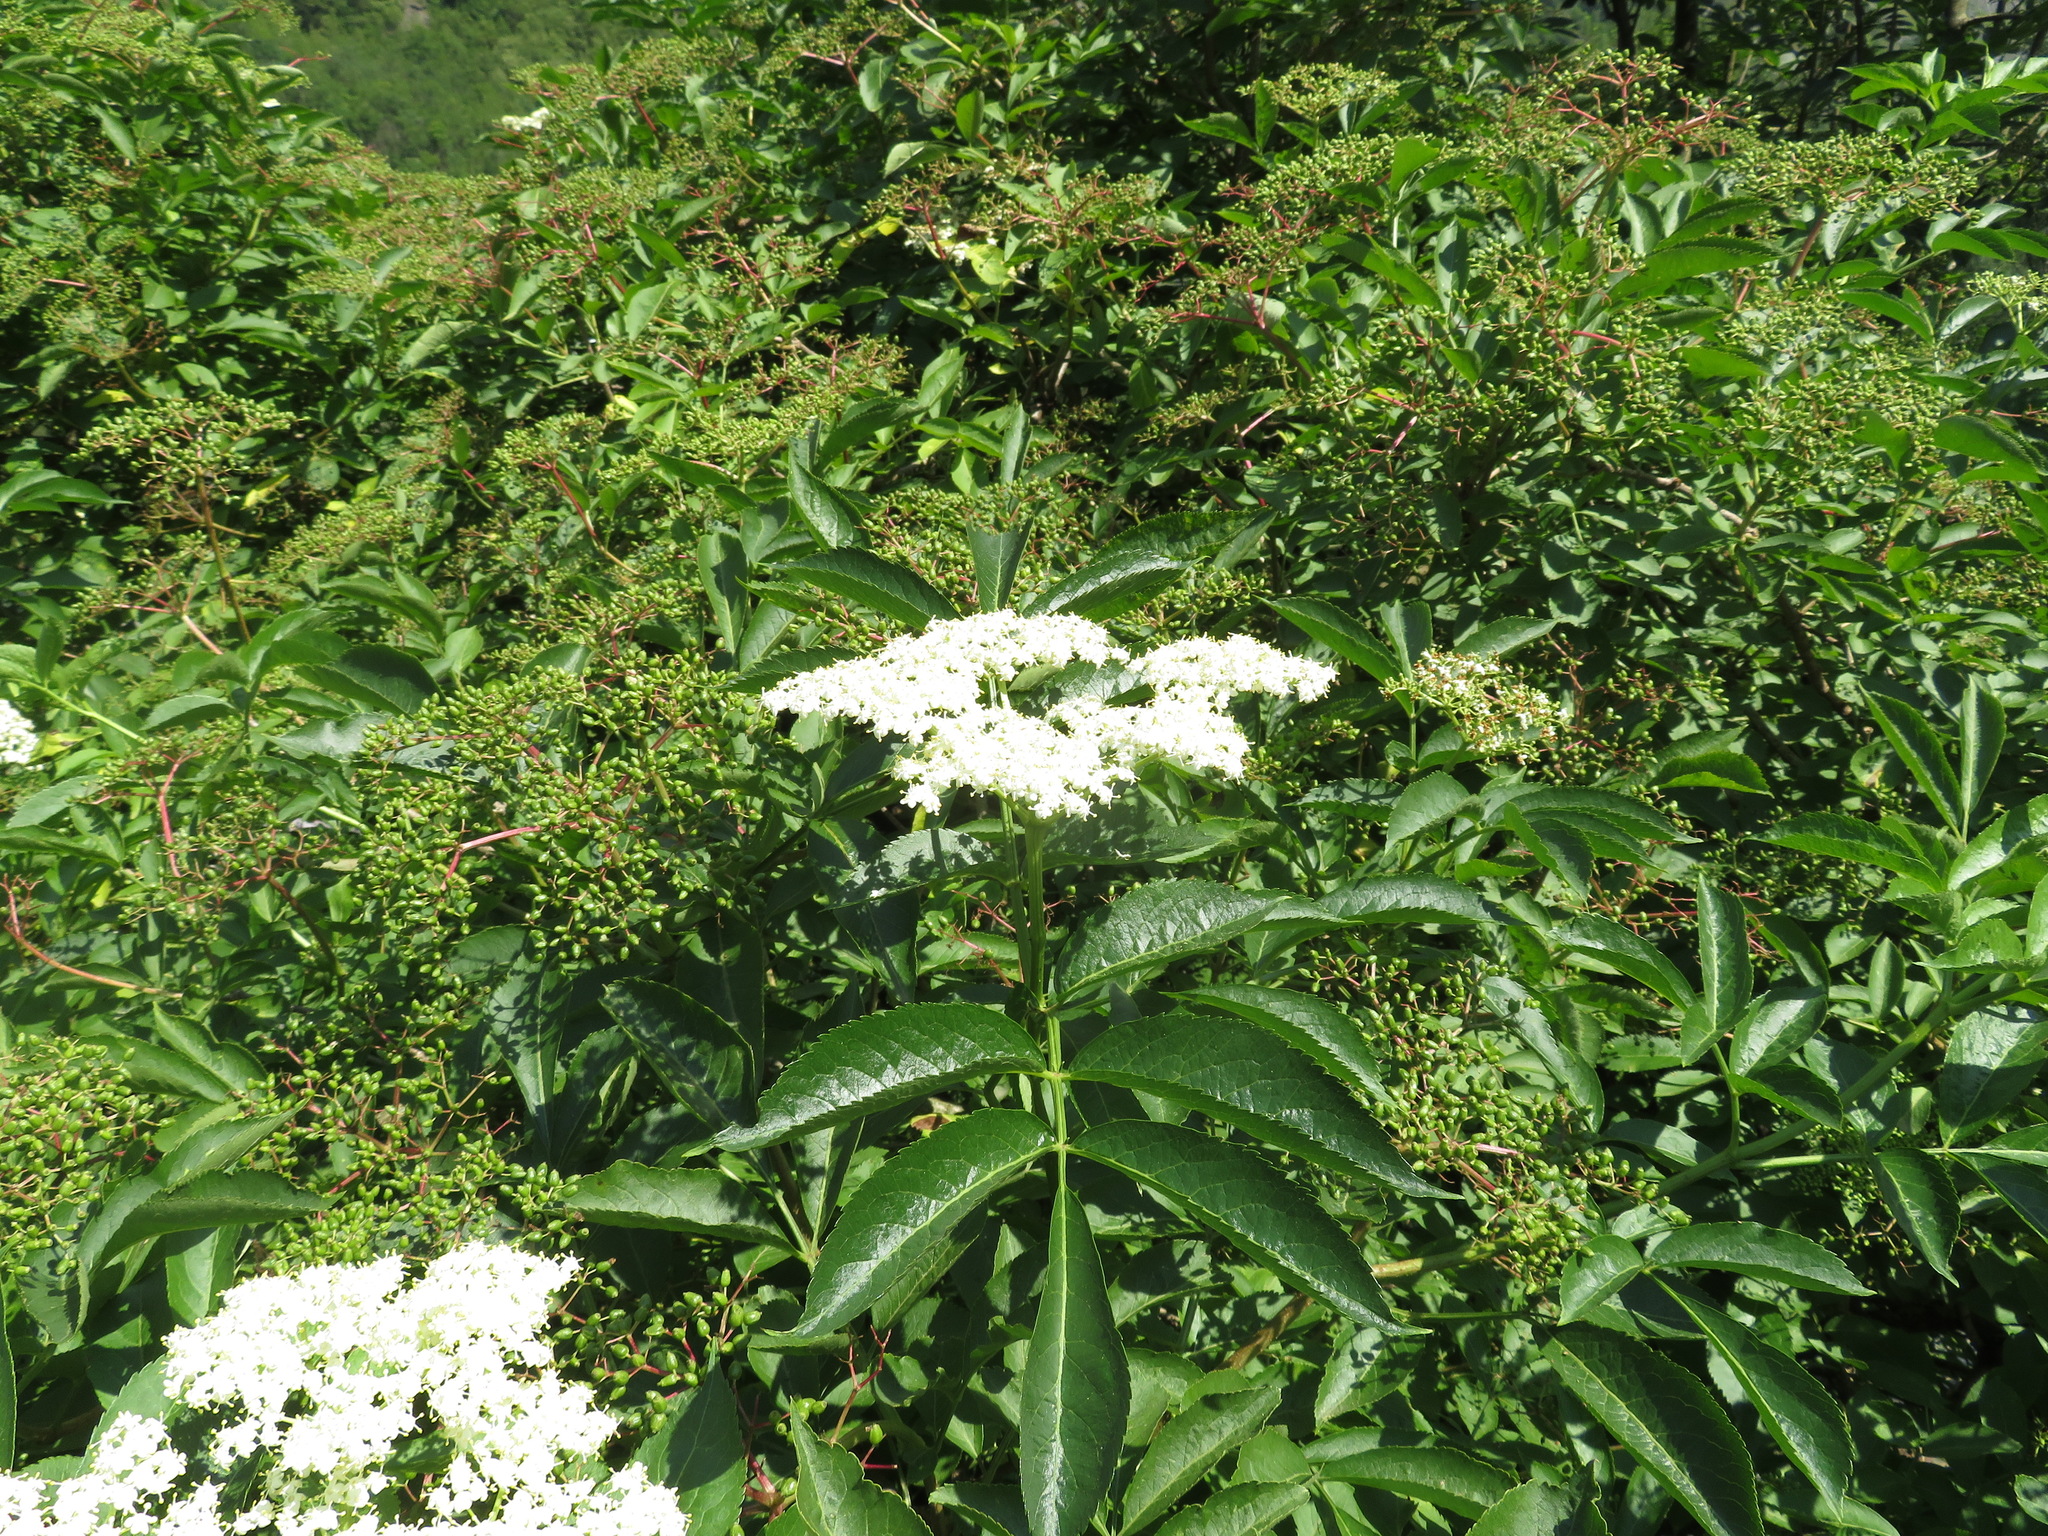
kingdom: Plantae
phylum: Tracheophyta
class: Magnoliopsida
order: Dipsacales
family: Viburnaceae
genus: Sambucus
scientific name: Sambucus nigra
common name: Elder
